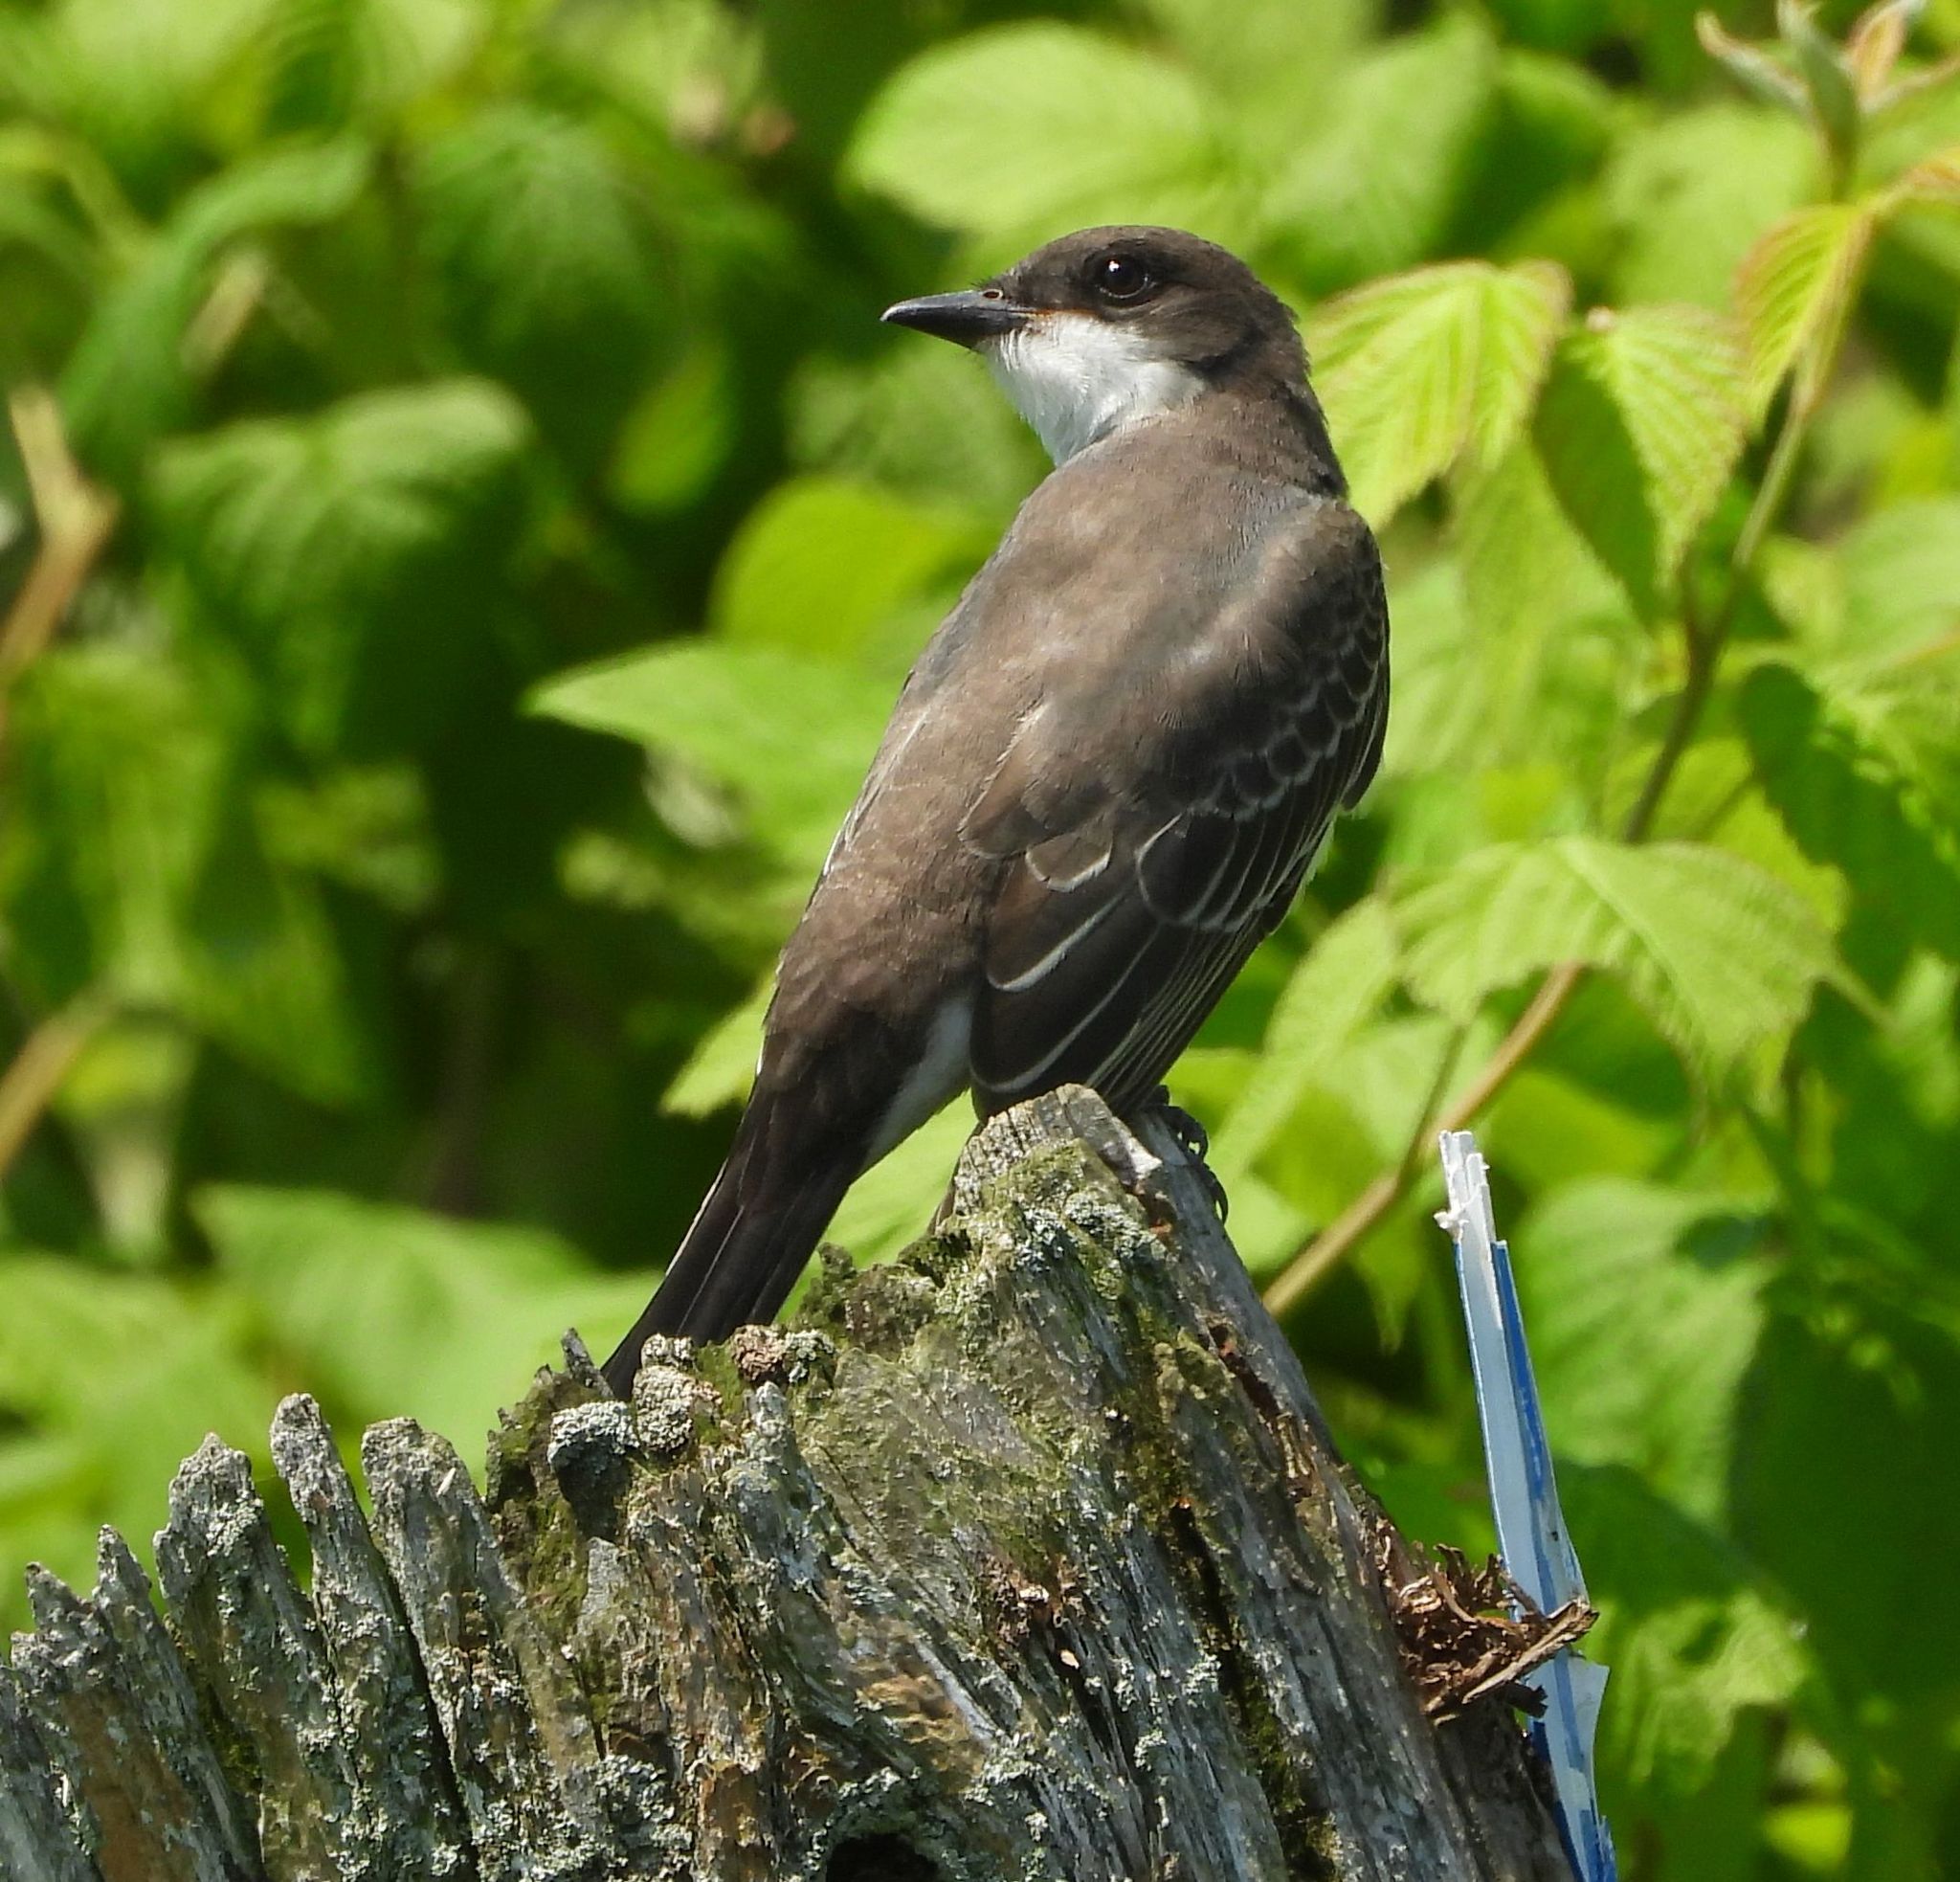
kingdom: Animalia
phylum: Chordata
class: Aves
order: Passeriformes
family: Tyrannidae
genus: Tyrannus
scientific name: Tyrannus tyrannus
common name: Eastern kingbird
